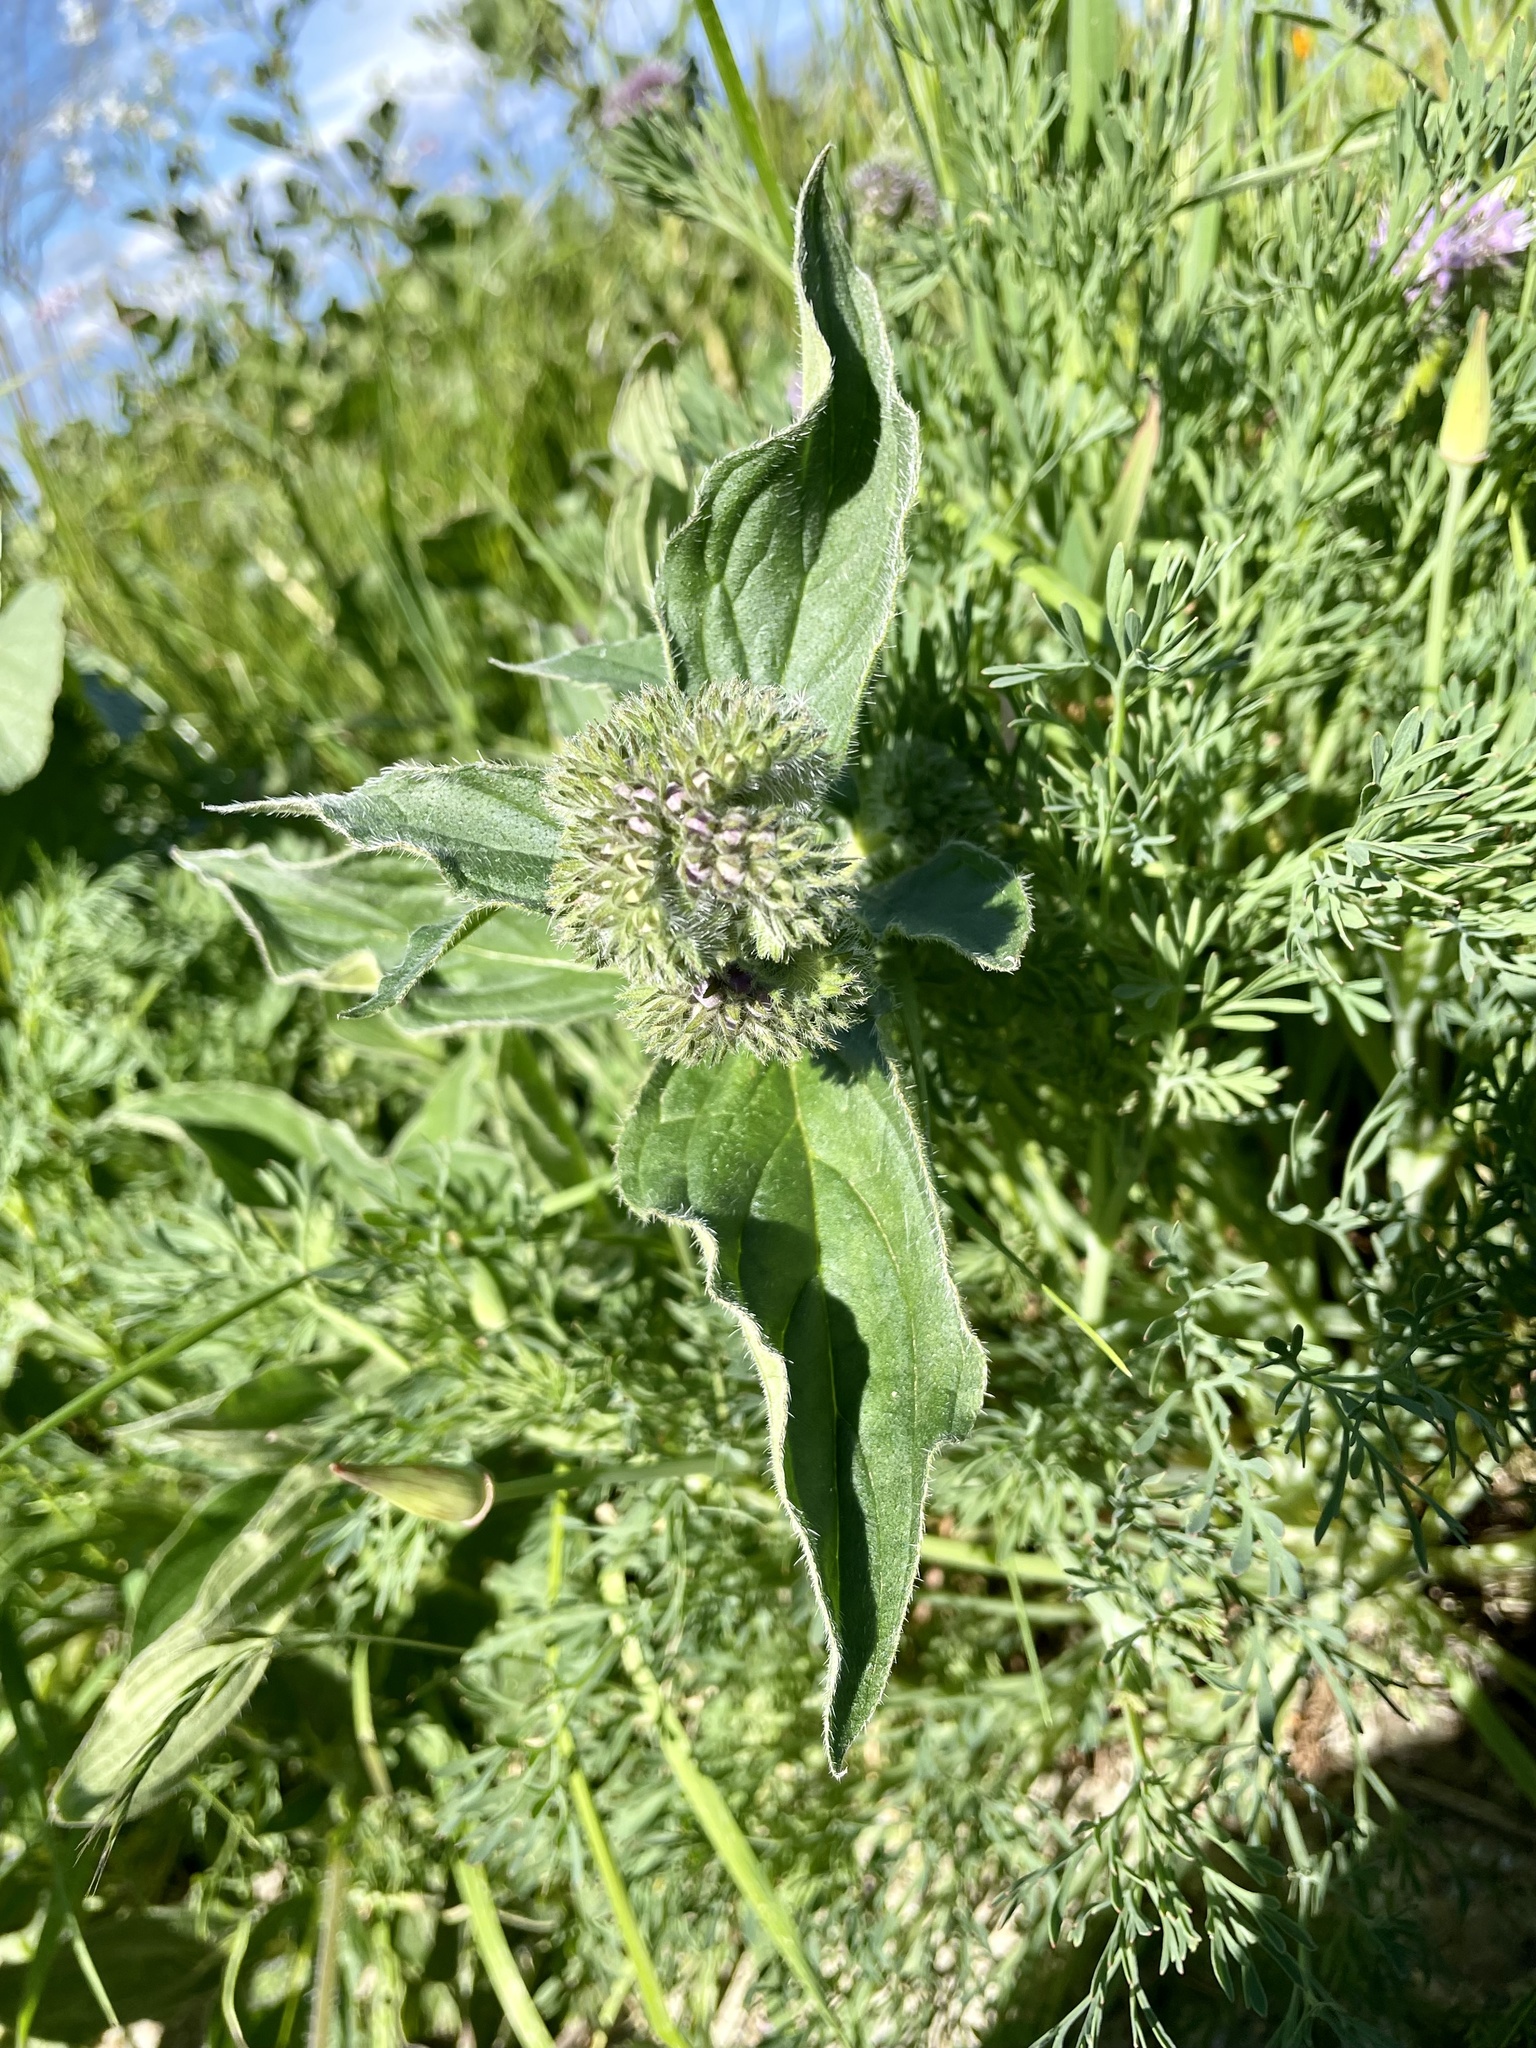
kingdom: Plantae
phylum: Tracheophyta
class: Magnoliopsida
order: Boraginales
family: Hydrophyllaceae
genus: Phacelia
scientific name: Phacelia californica
